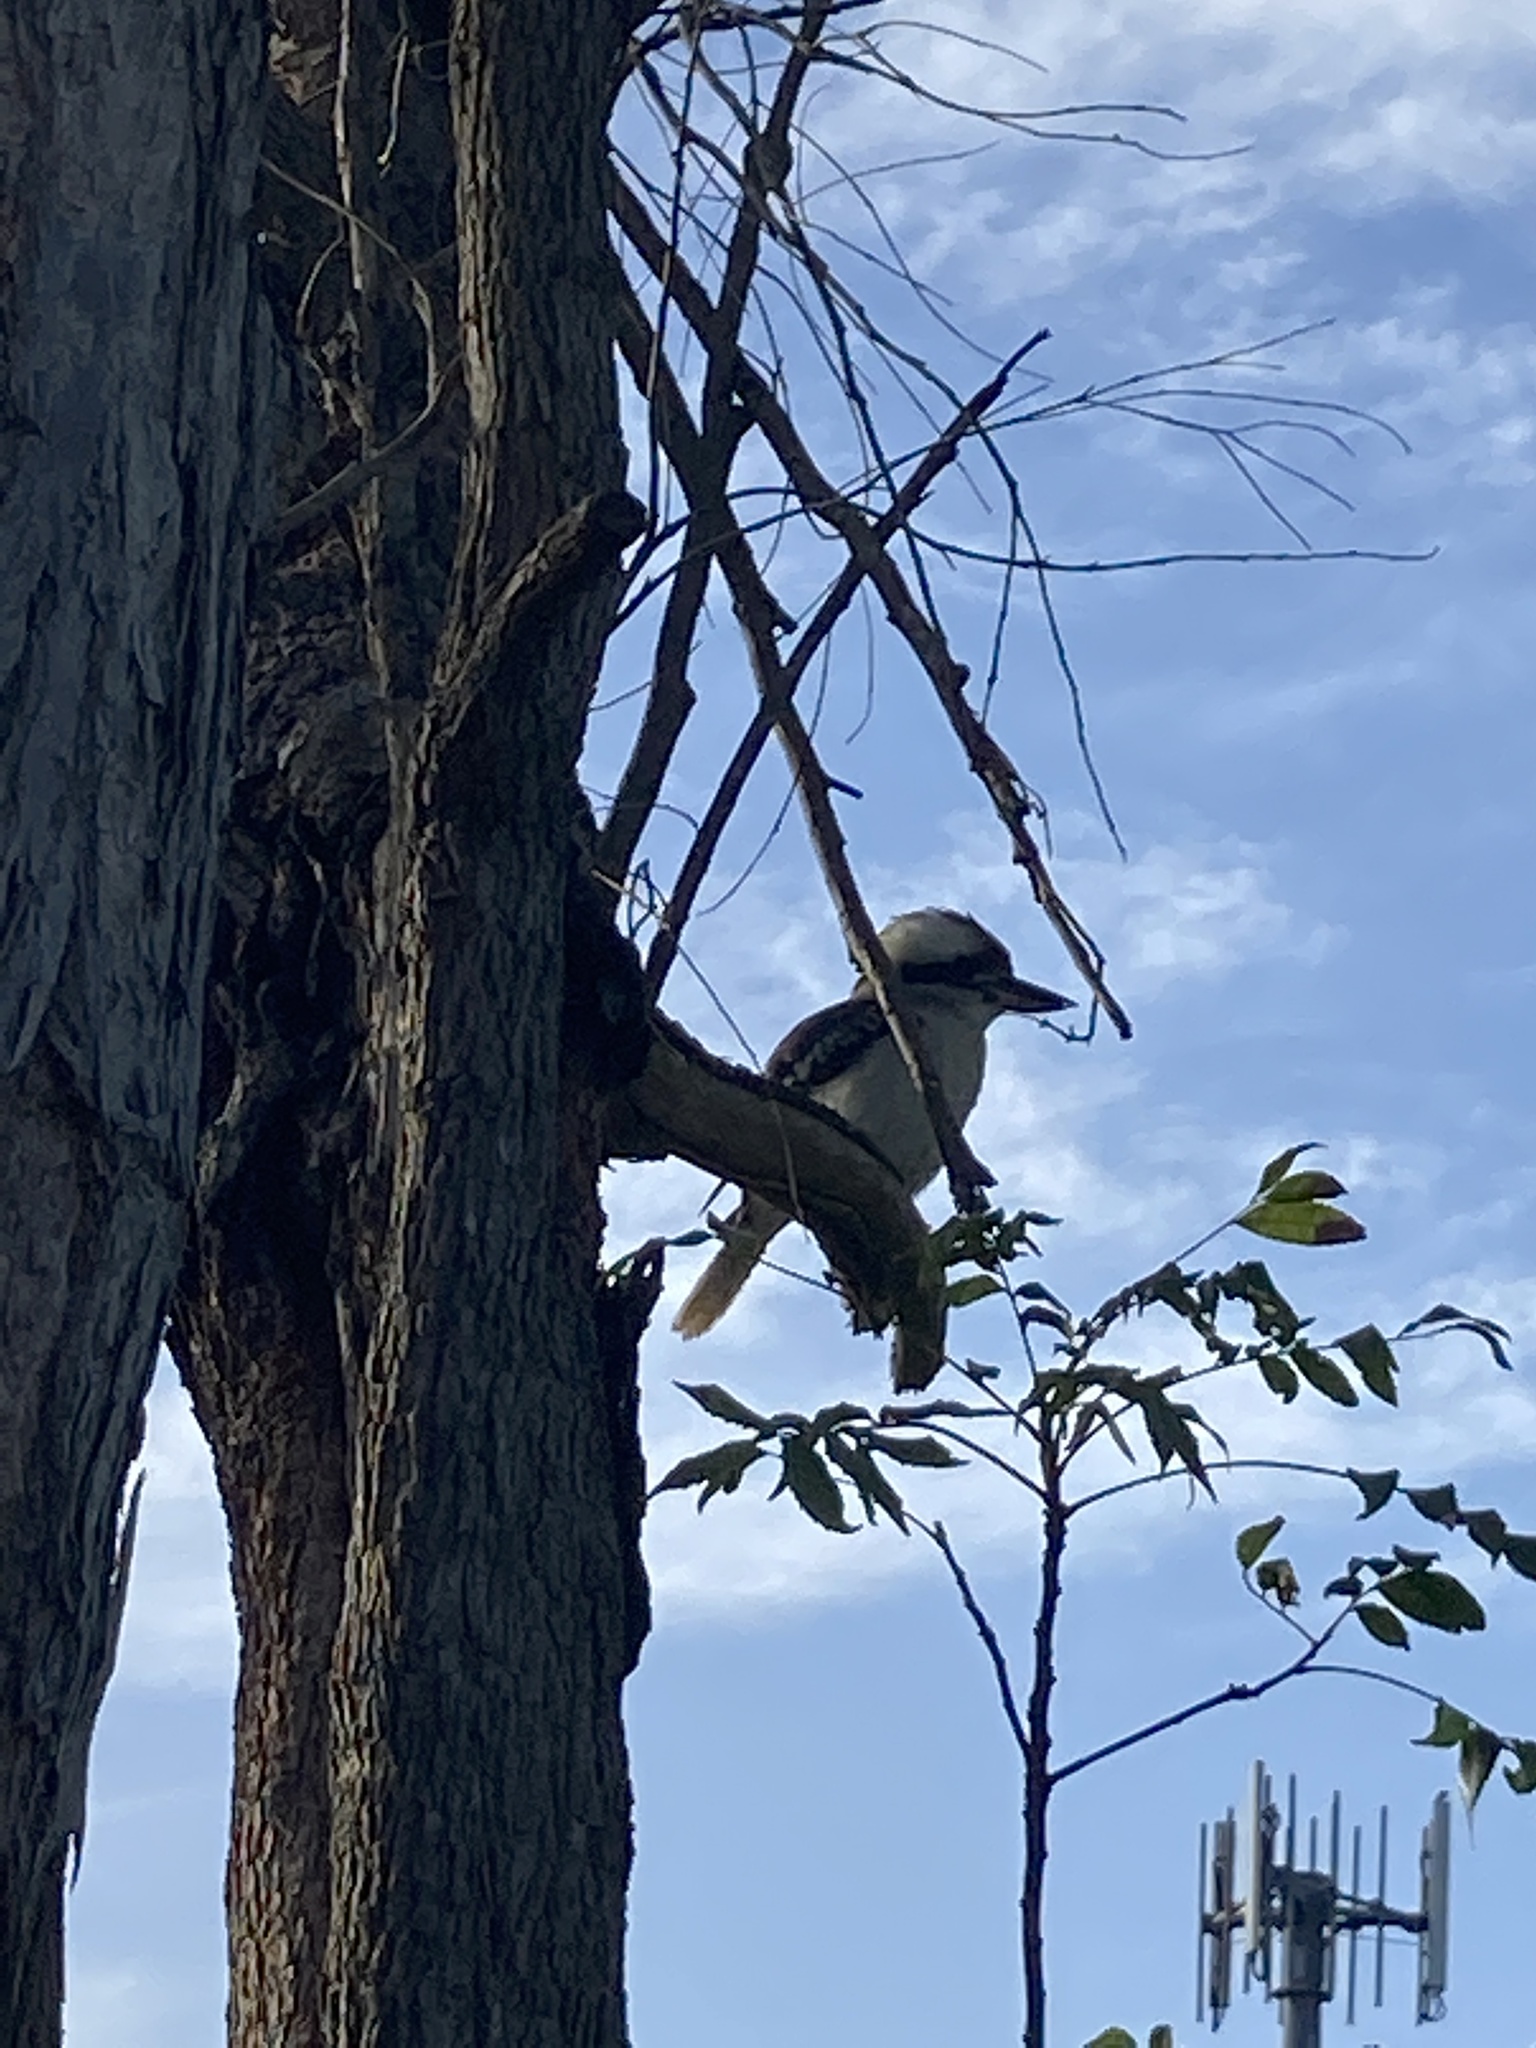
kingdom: Animalia
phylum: Chordata
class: Aves
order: Coraciiformes
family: Alcedinidae
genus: Dacelo
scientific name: Dacelo novaeguineae
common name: Laughing kookaburra
